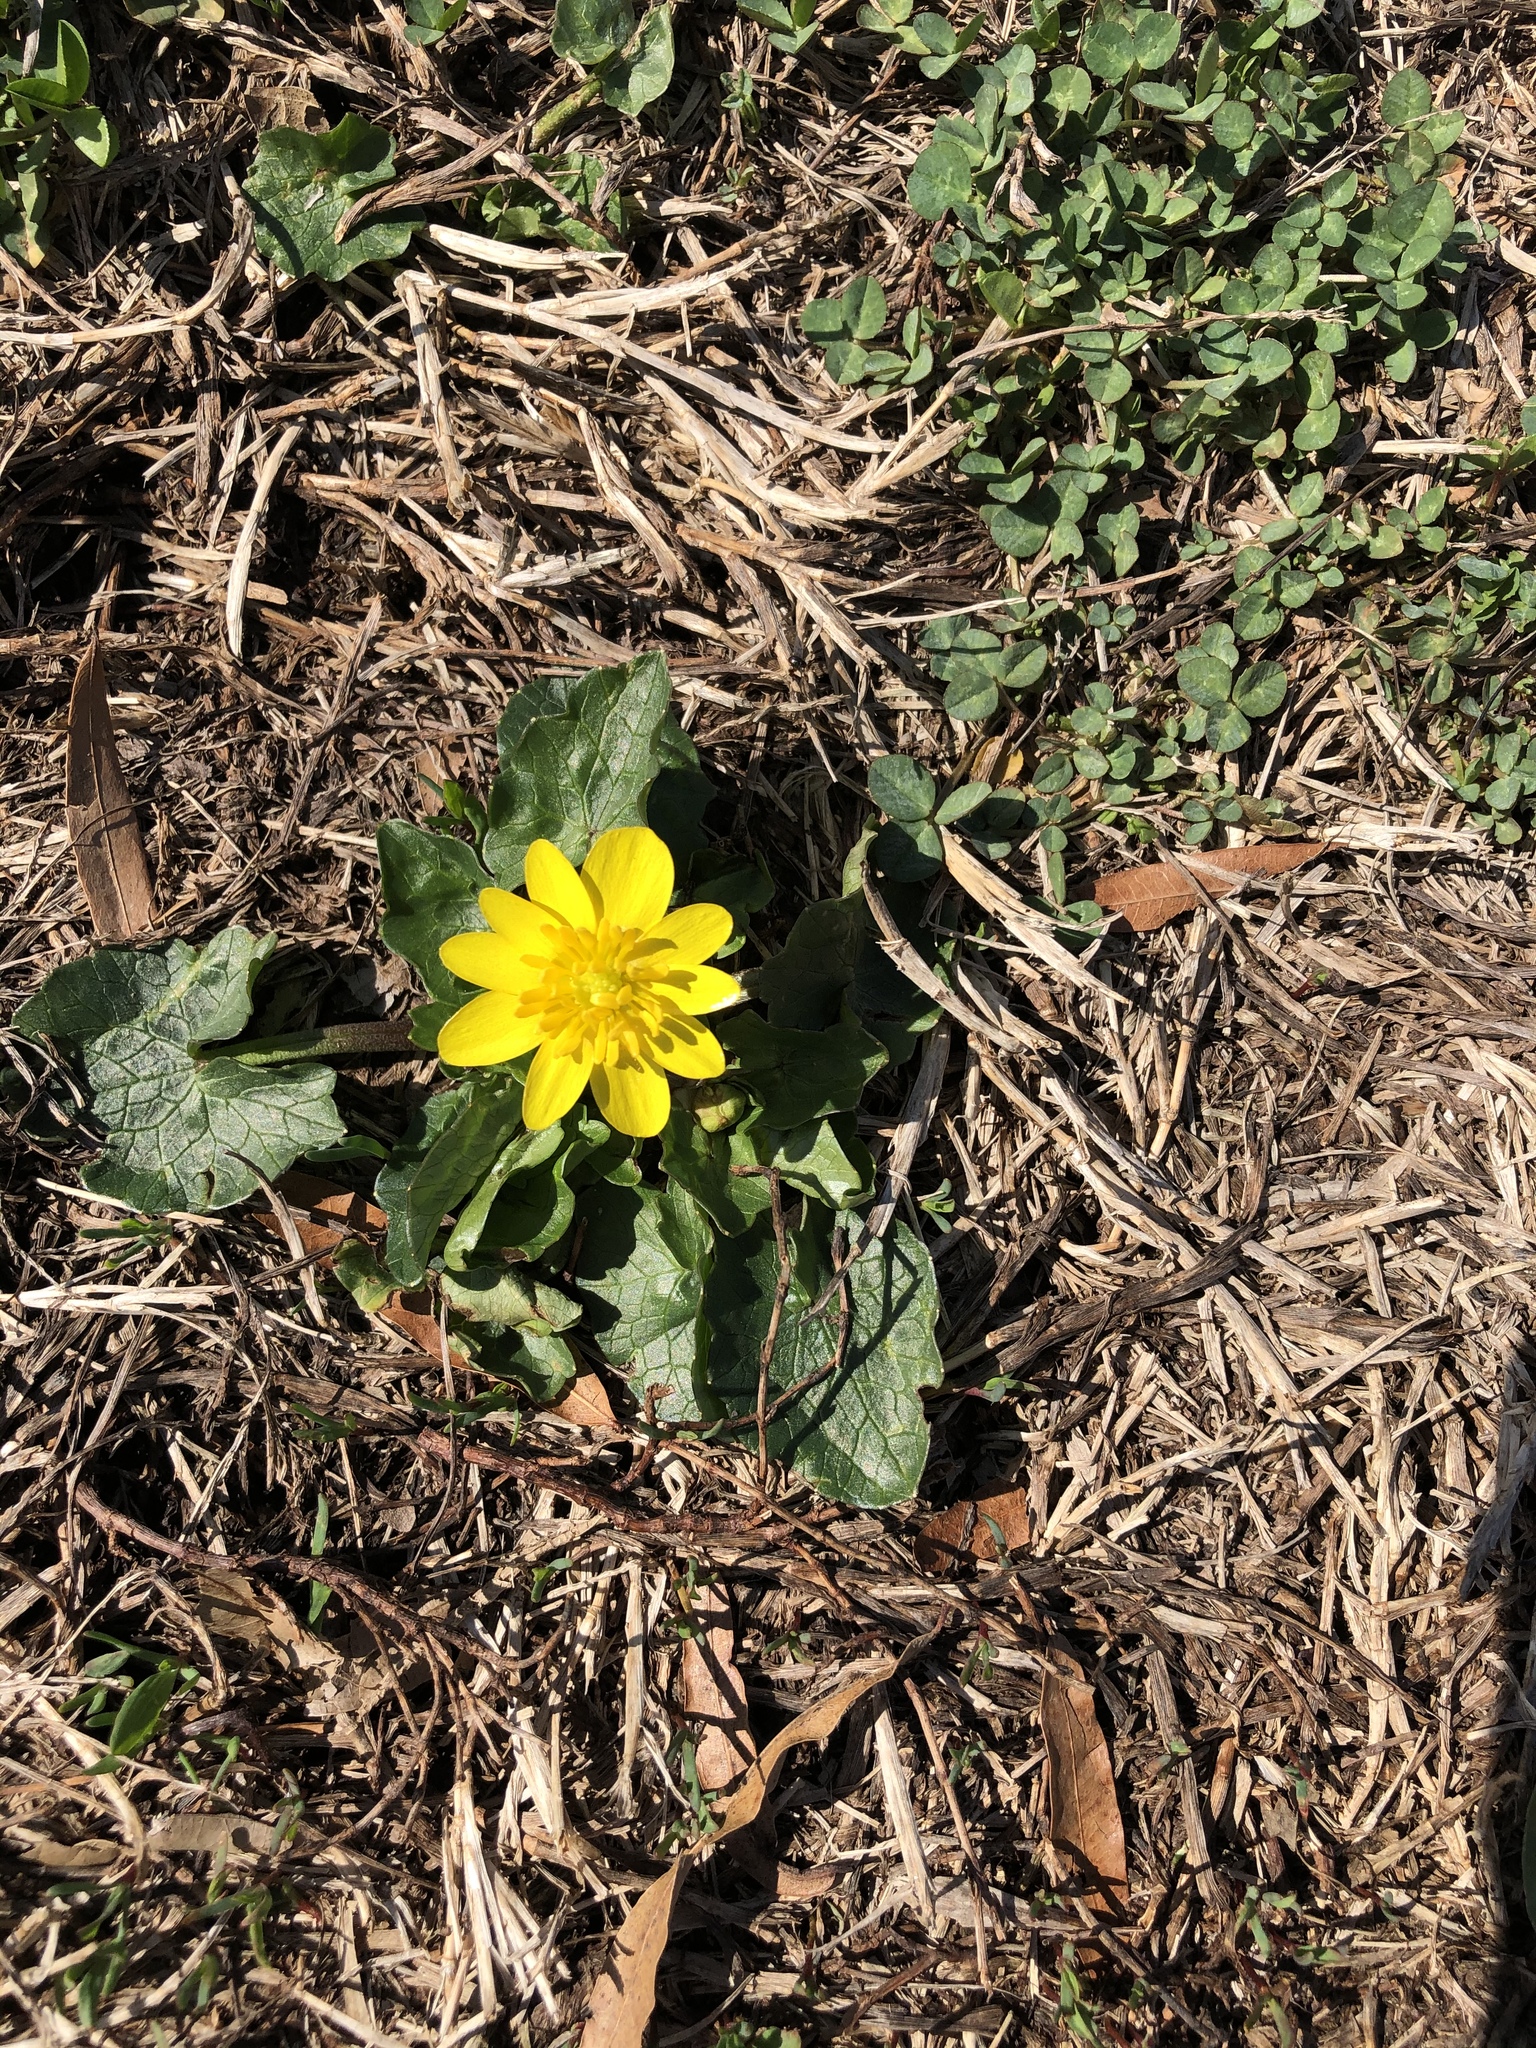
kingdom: Plantae
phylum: Tracheophyta
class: Magnoliopsida
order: Ranunculales
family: Ranunculaceae
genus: Ficaria
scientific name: Ficaria verna
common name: Lesser celandine
